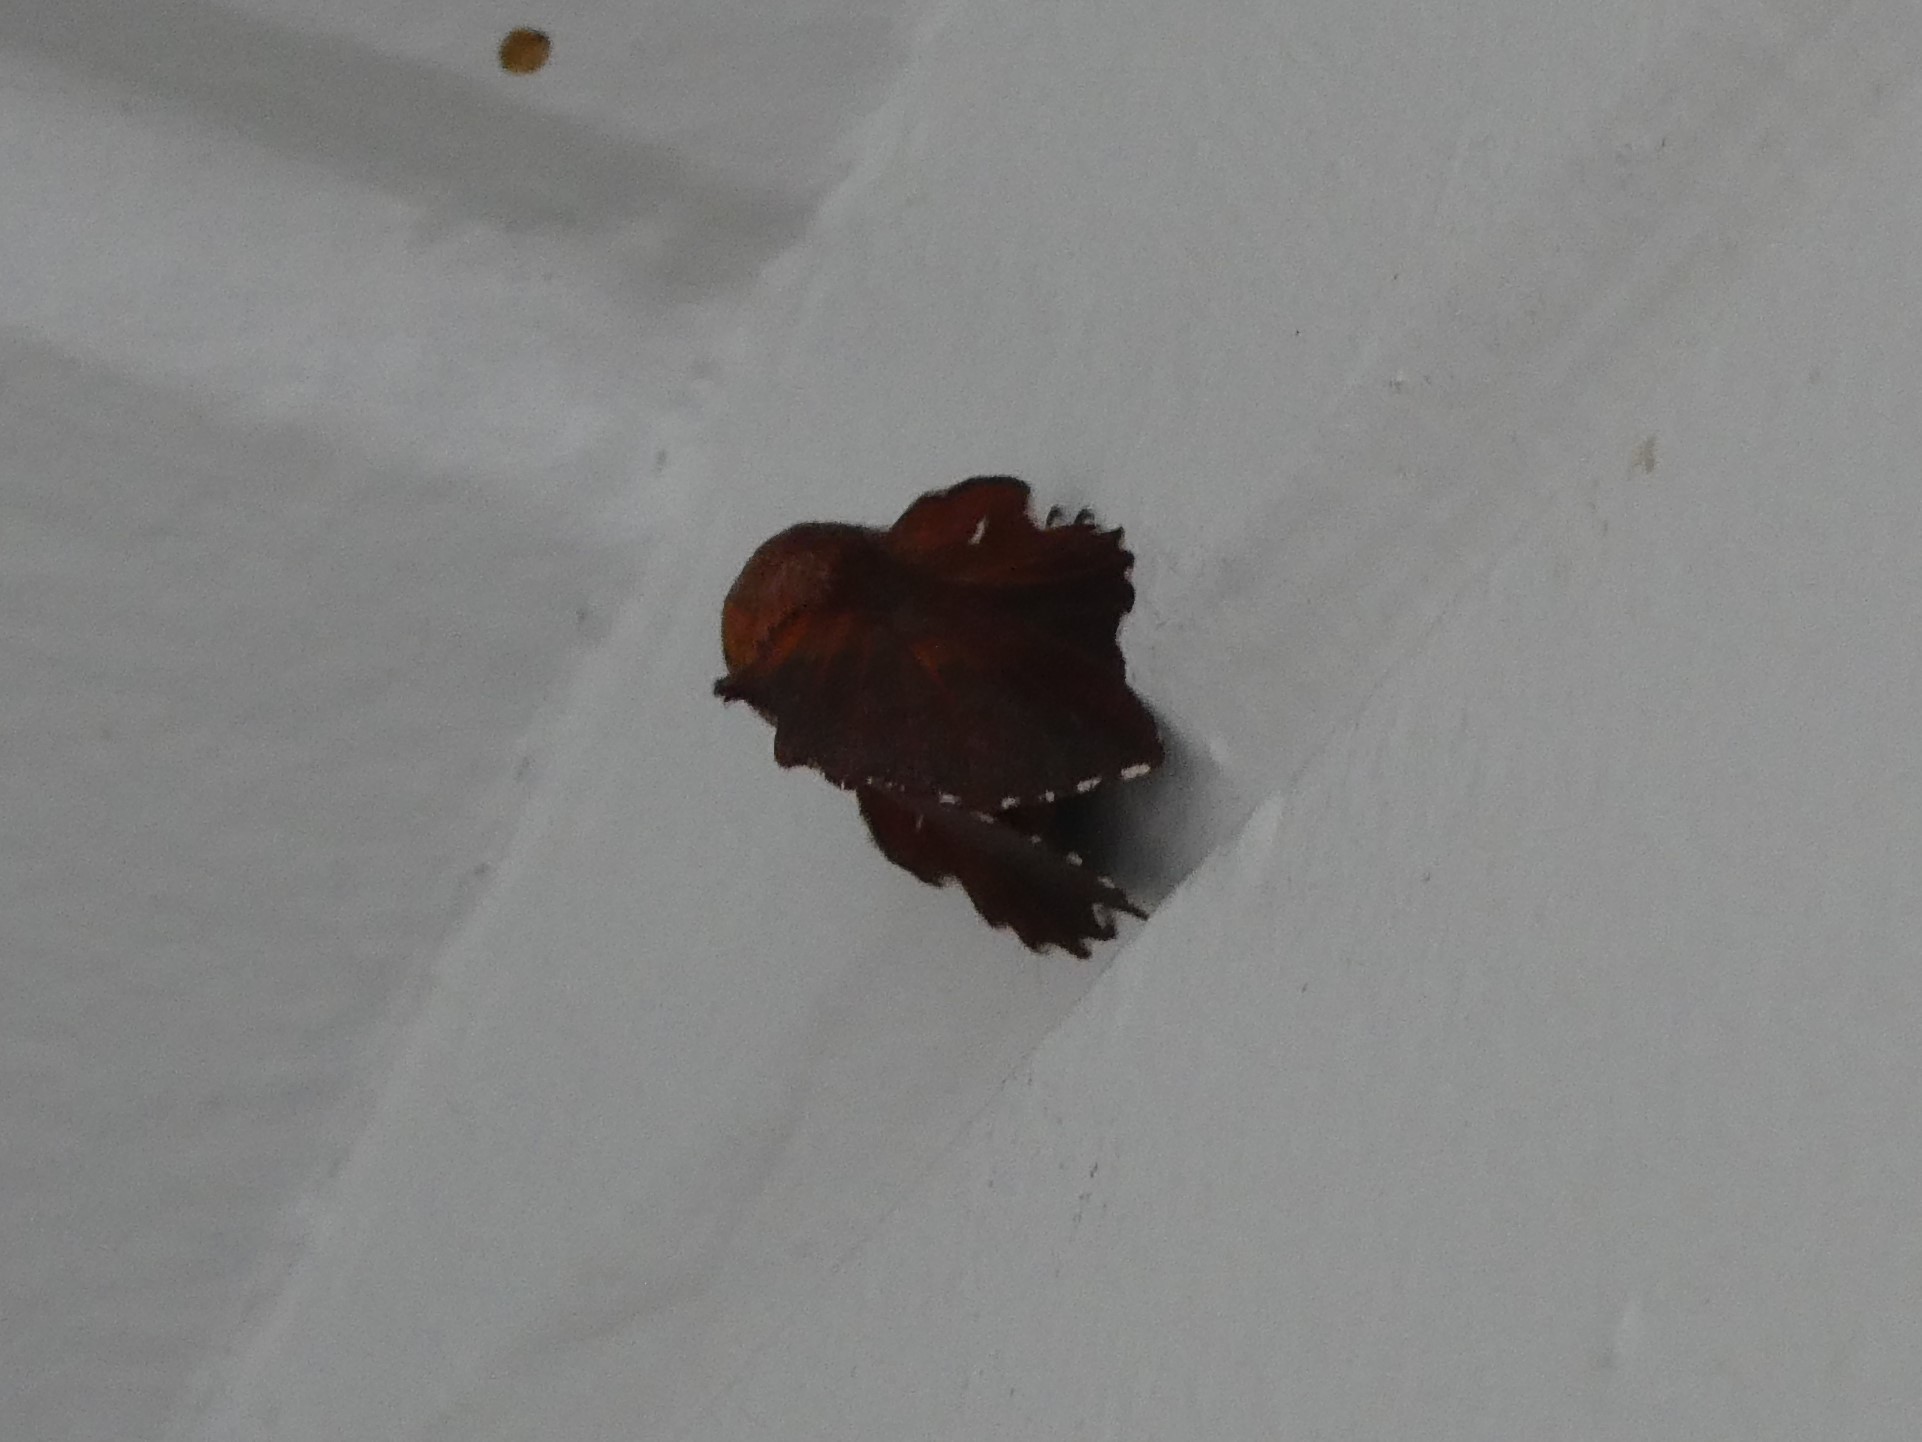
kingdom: Animalia
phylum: Arthropoda
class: Insecta
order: Lepidoptera
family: Lasiocampidae
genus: Phyllodesma
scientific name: Phyllodesma americana
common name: American lappet moth
